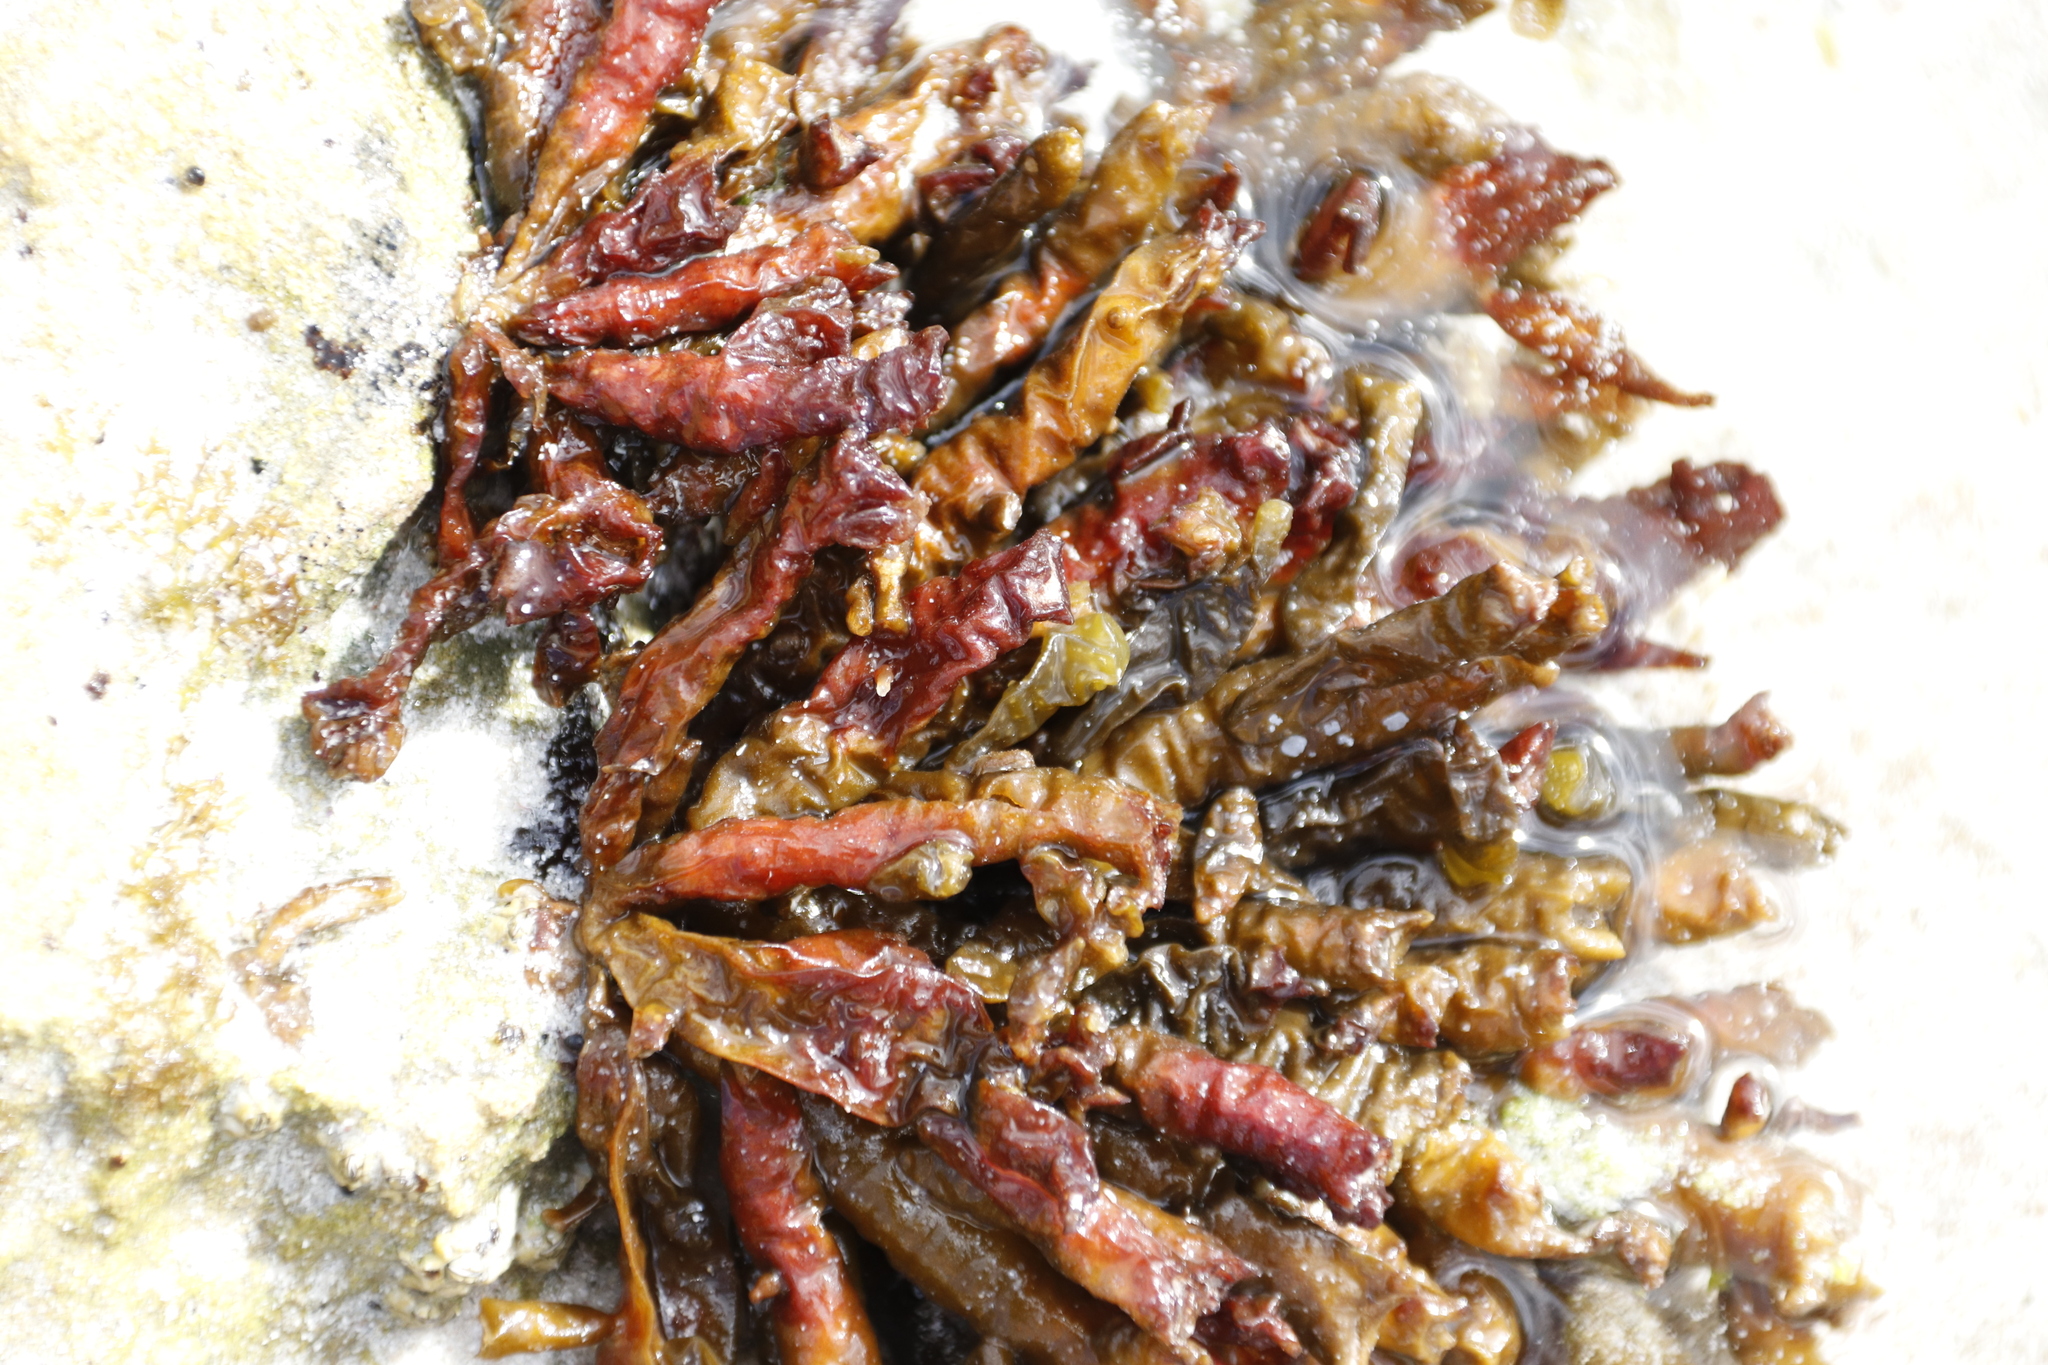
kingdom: Chromista
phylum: Ochrophyta
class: Phaeophyceae
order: Scytothamnales
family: Splachnidiaceae
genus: Splachnidium
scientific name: Splachnidium rugosum
